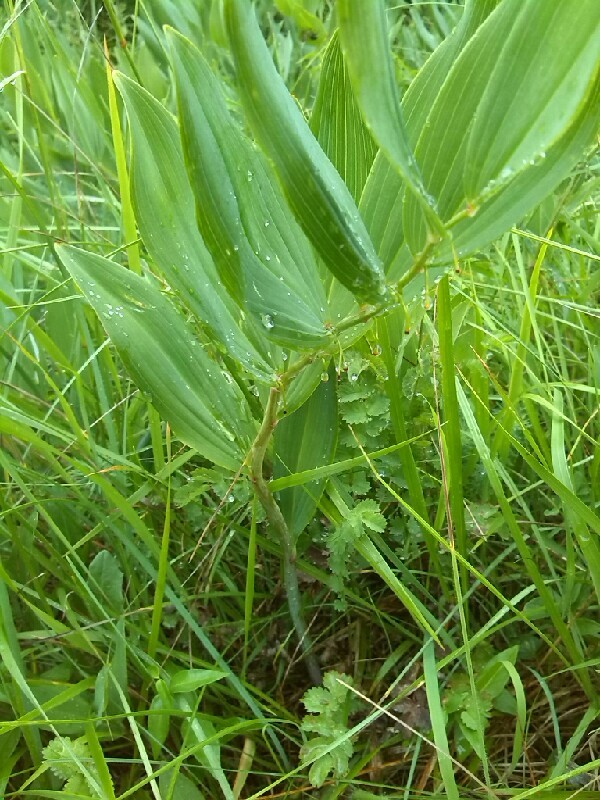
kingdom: Plantae
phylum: Tracheophyta
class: Liliopsida
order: Asparagales
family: Asparagaceae
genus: Polygonatum
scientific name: Polygonatum multiflorum
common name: Solomon's-seal
